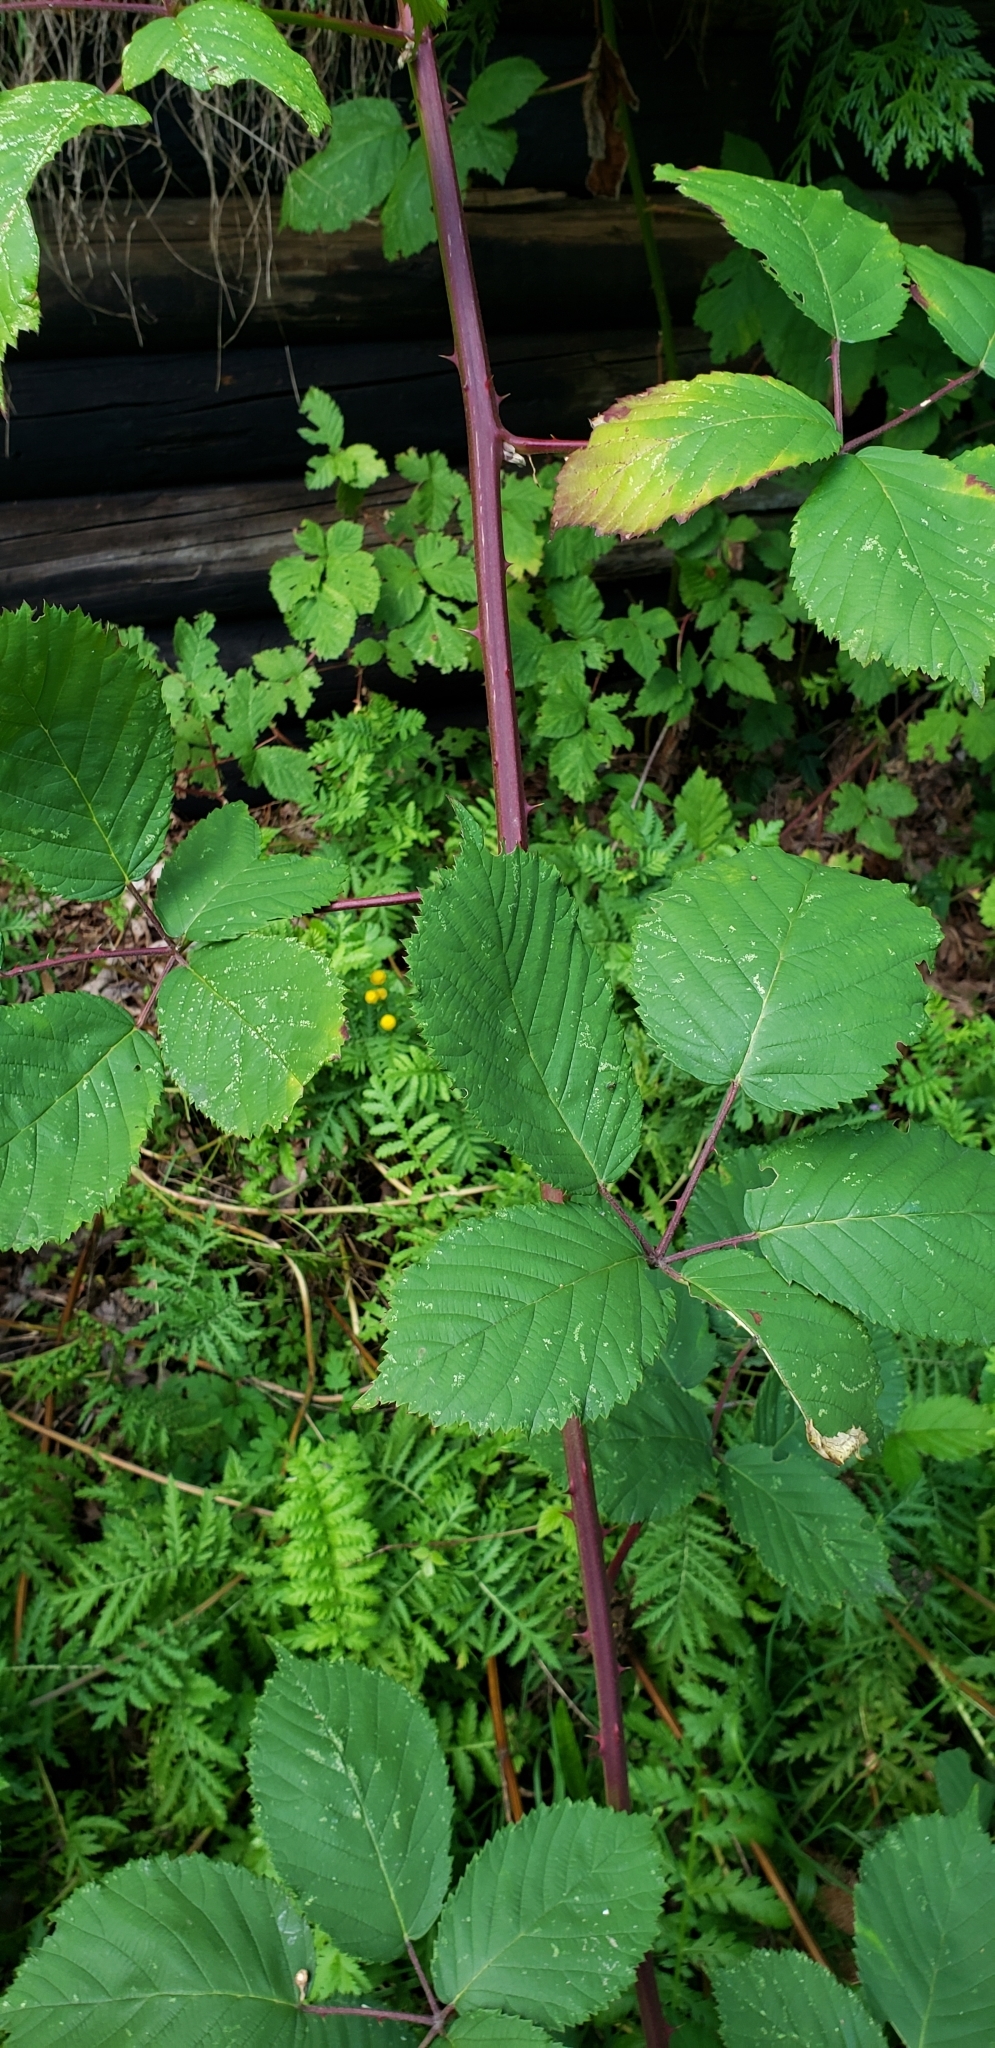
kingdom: Plantae
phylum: Tracheophyta
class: Magnoliopsida
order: Rosales
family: Rosaceae
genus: Rubus
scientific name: Rubus armeniacus
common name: Himalayan blackberry
